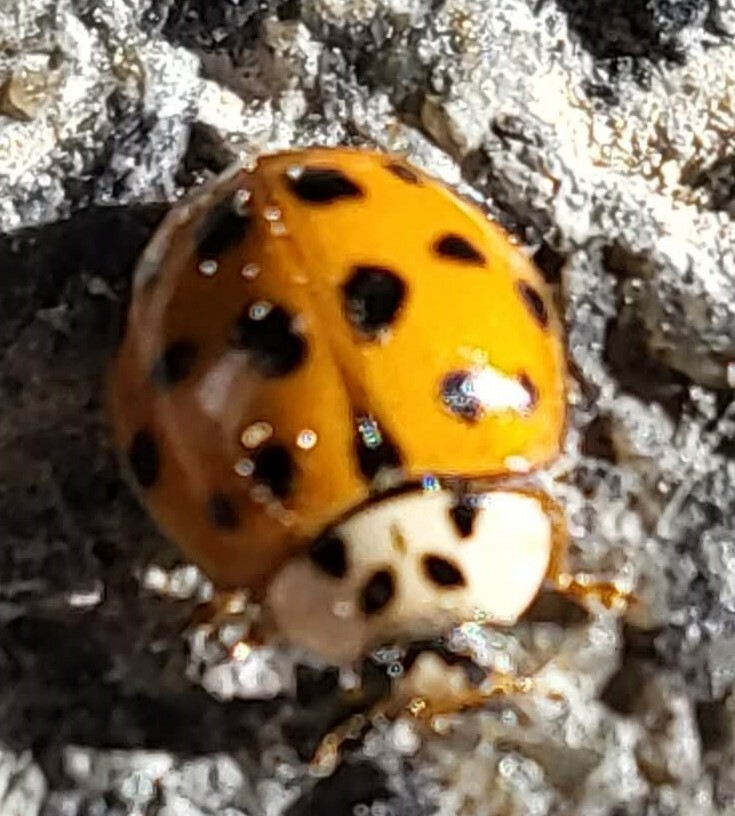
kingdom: Animalia
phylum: Arthropoda
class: Insecta
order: Coleoptera
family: Coccinellidae
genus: Harmonia
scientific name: Harmonia axyridis
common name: Harlequin ladybird
